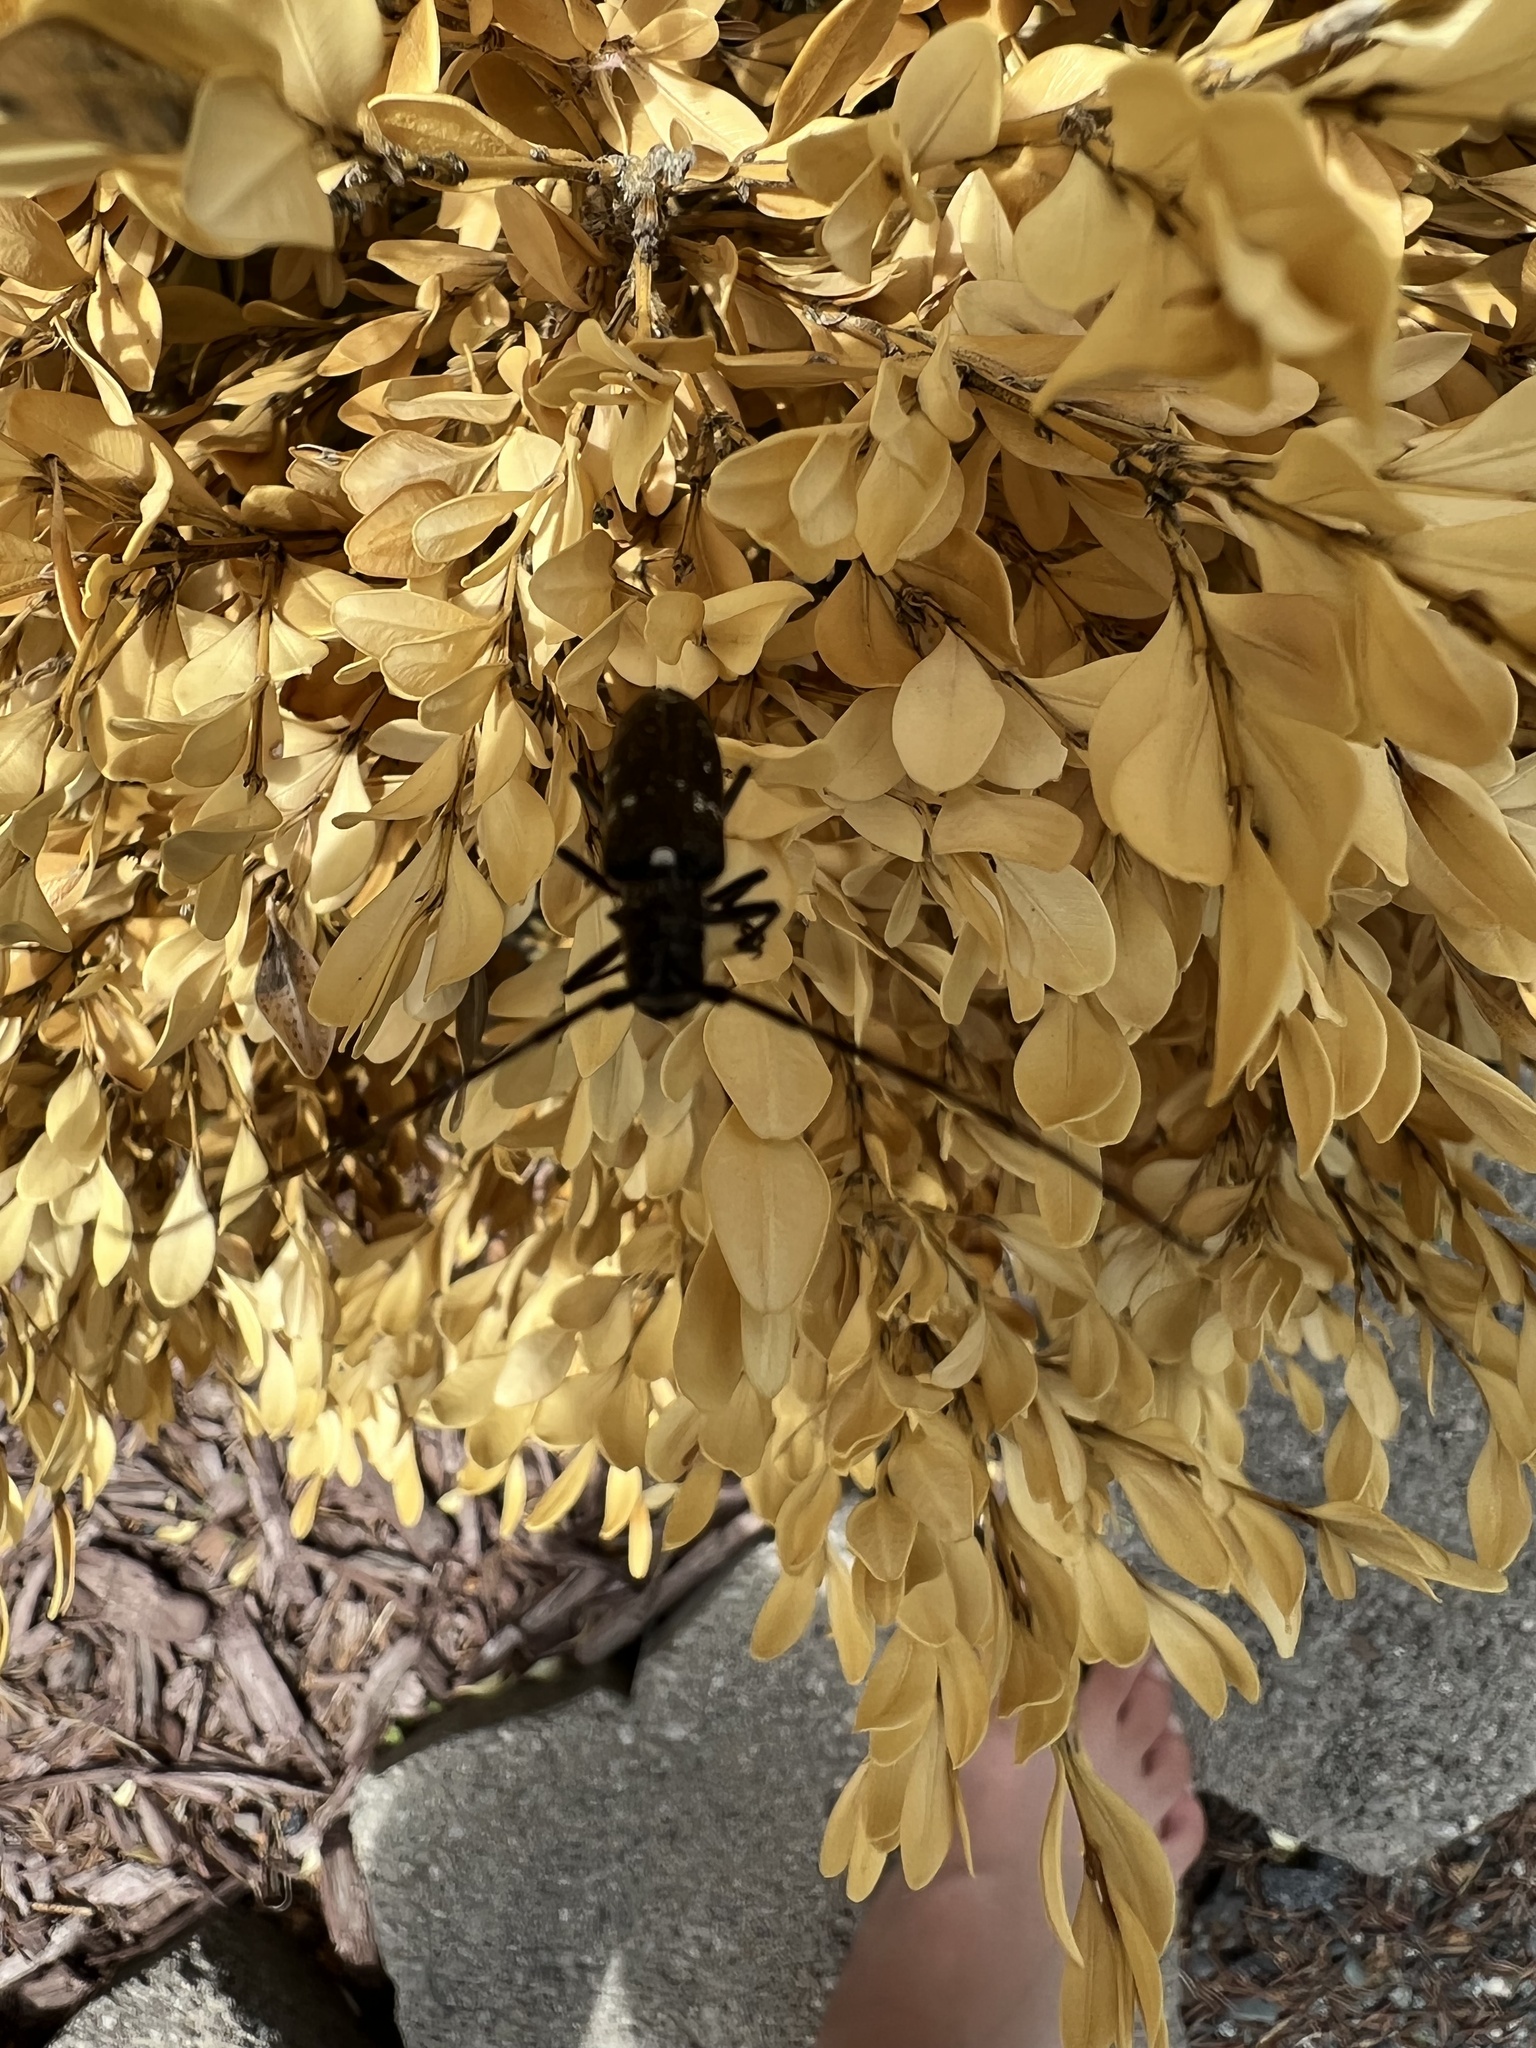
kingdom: Animalia
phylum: Arthropoda
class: Insecta
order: Coleoptera
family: Cerambycidae
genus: Monochamus
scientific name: Monochamus scutellatus
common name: White-spotted sawyer beetle
